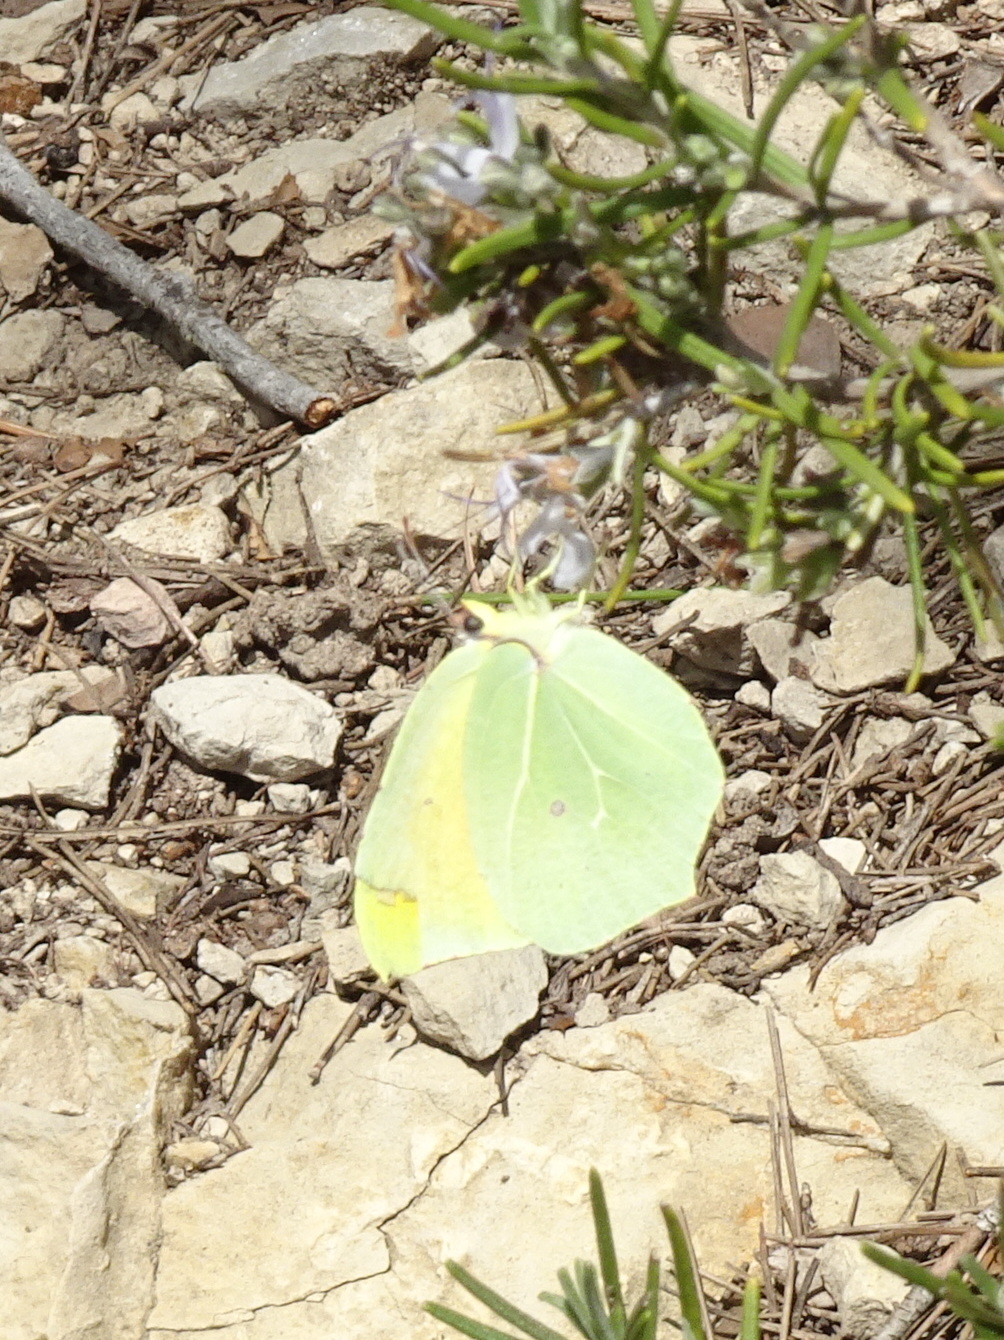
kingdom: Animalia
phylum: Arthropoda
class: Insecta
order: Lepidoptera
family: Pieridae
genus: Gonepteryx
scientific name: Gonepteryx cleopatra
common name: Cleopatra
